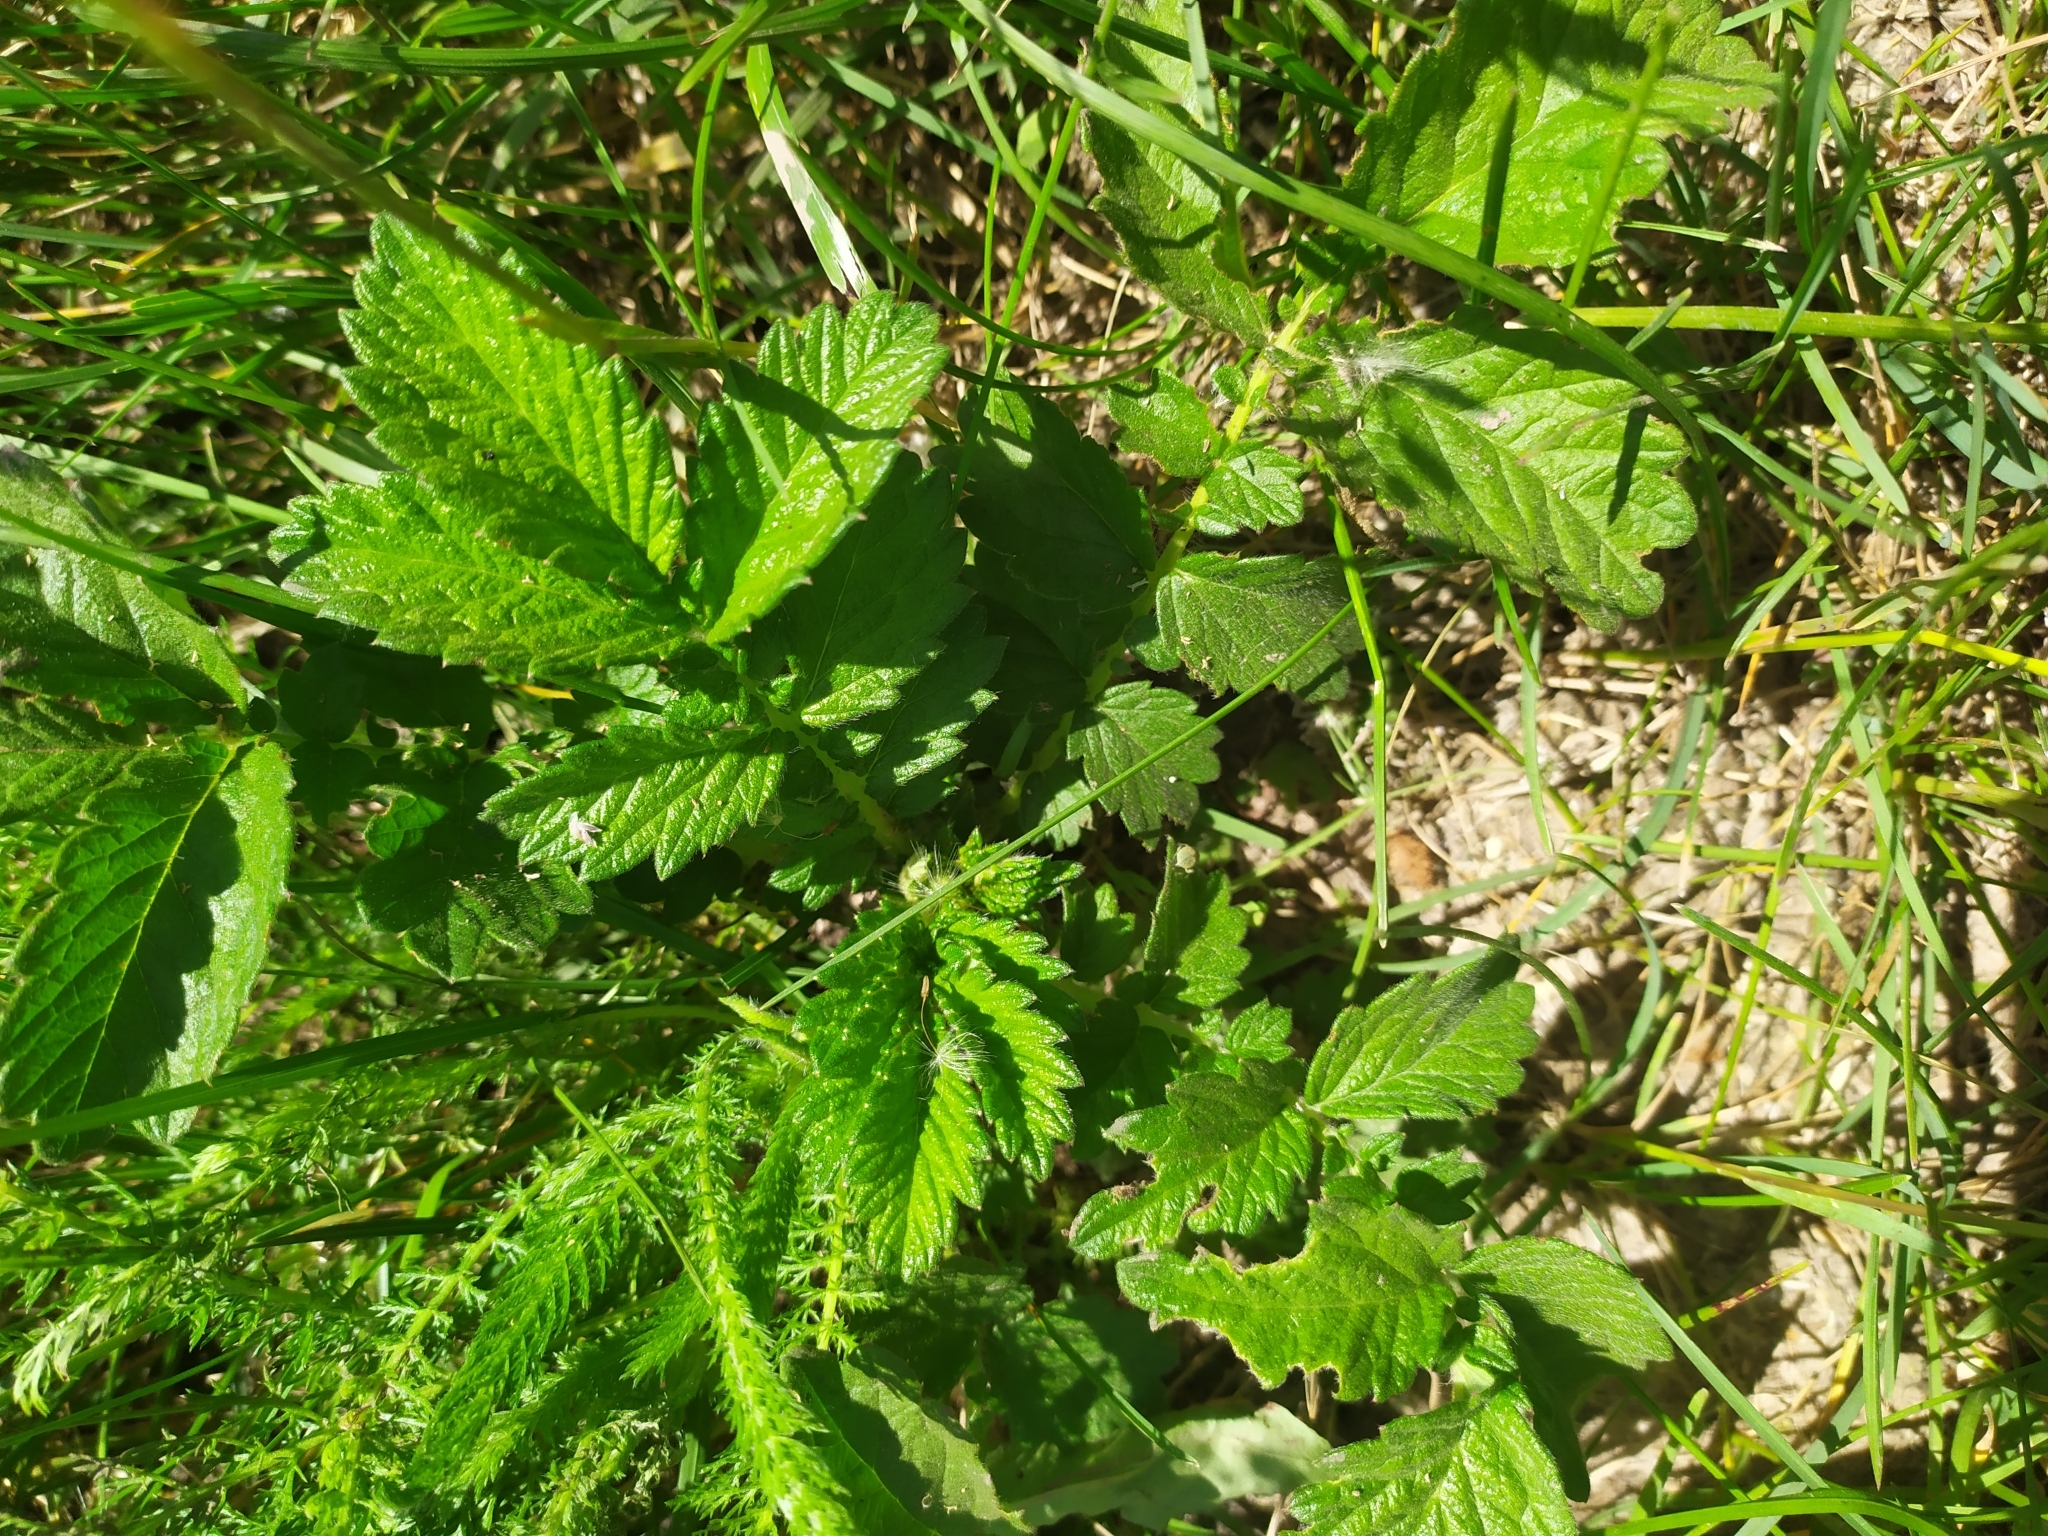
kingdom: Plantae
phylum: Tracheophyta
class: Magnoliopsida
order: Rosales
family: Rosaceae
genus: Agrimonia
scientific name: Agrimonia eupatoria
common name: Agrimony
